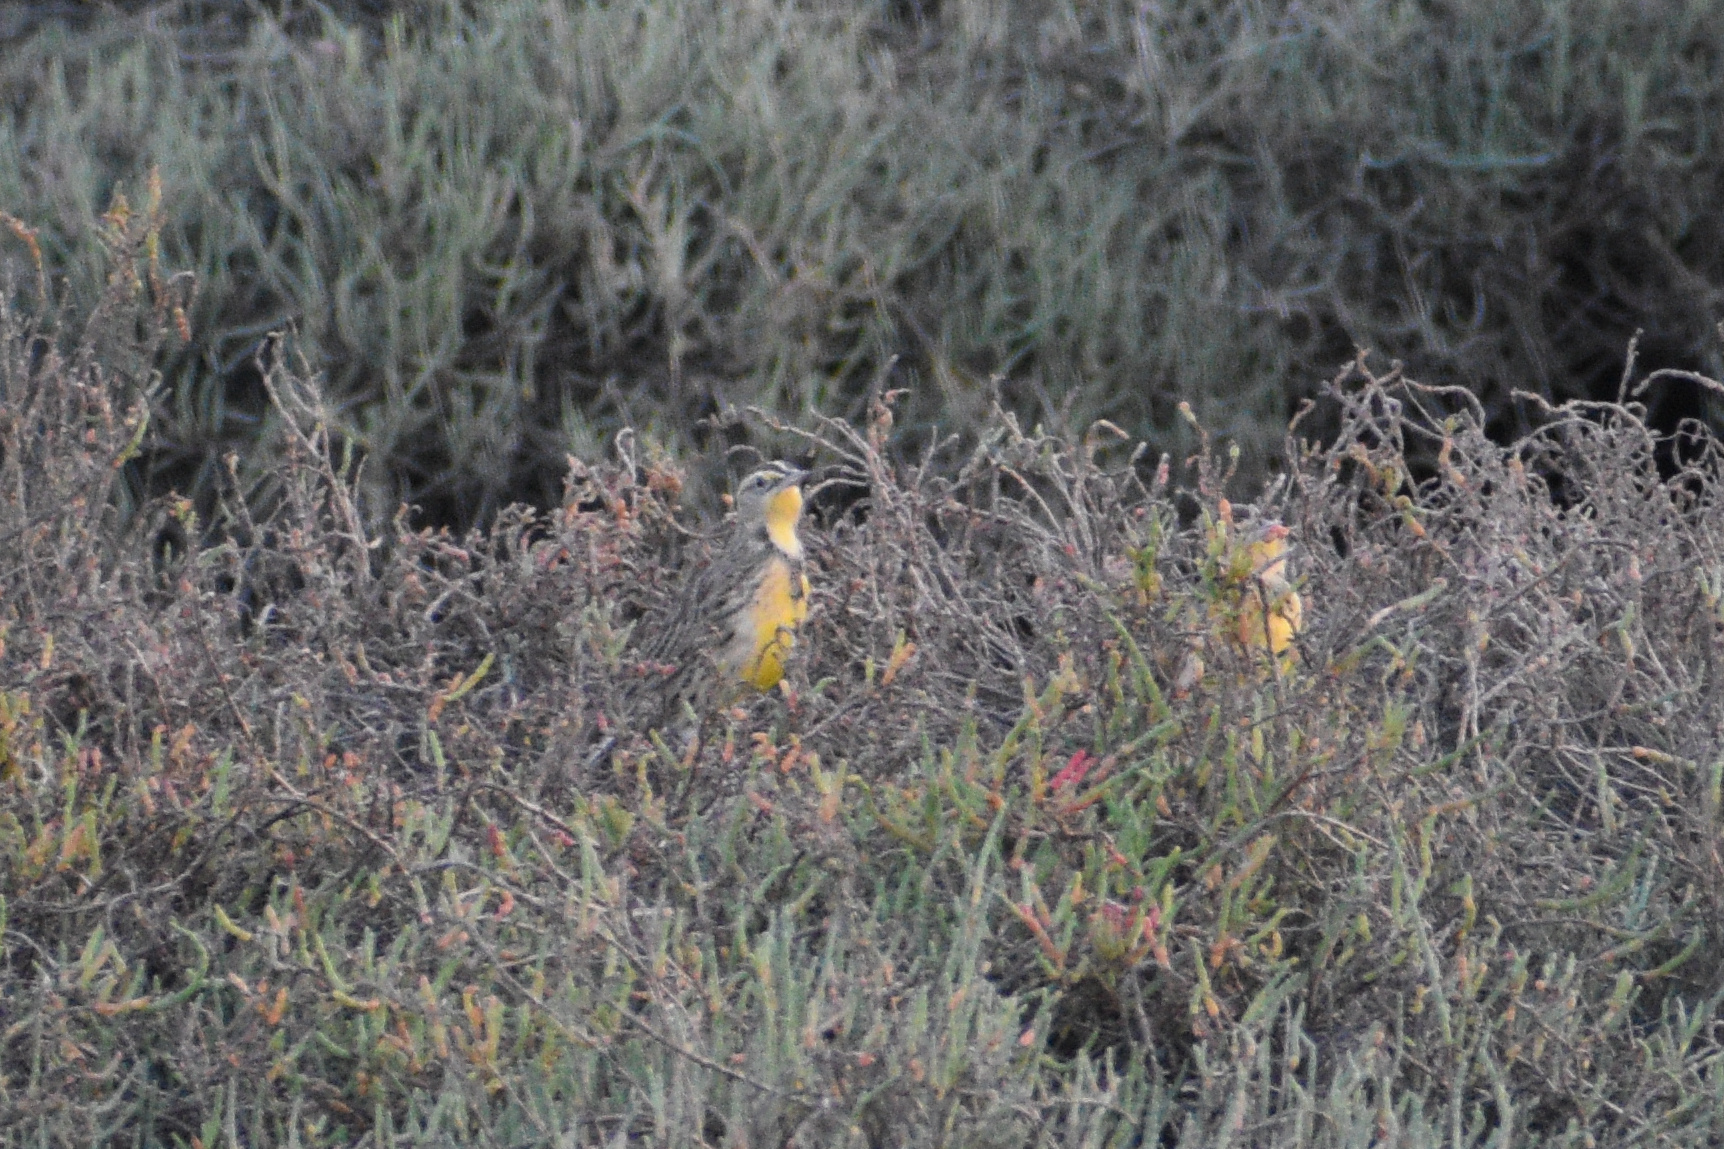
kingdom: Animalia
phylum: Chordata
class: Aves
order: Passeriformes
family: Icteridae
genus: Sturnella
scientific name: Sturnella neglecta
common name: Western meadowlark
